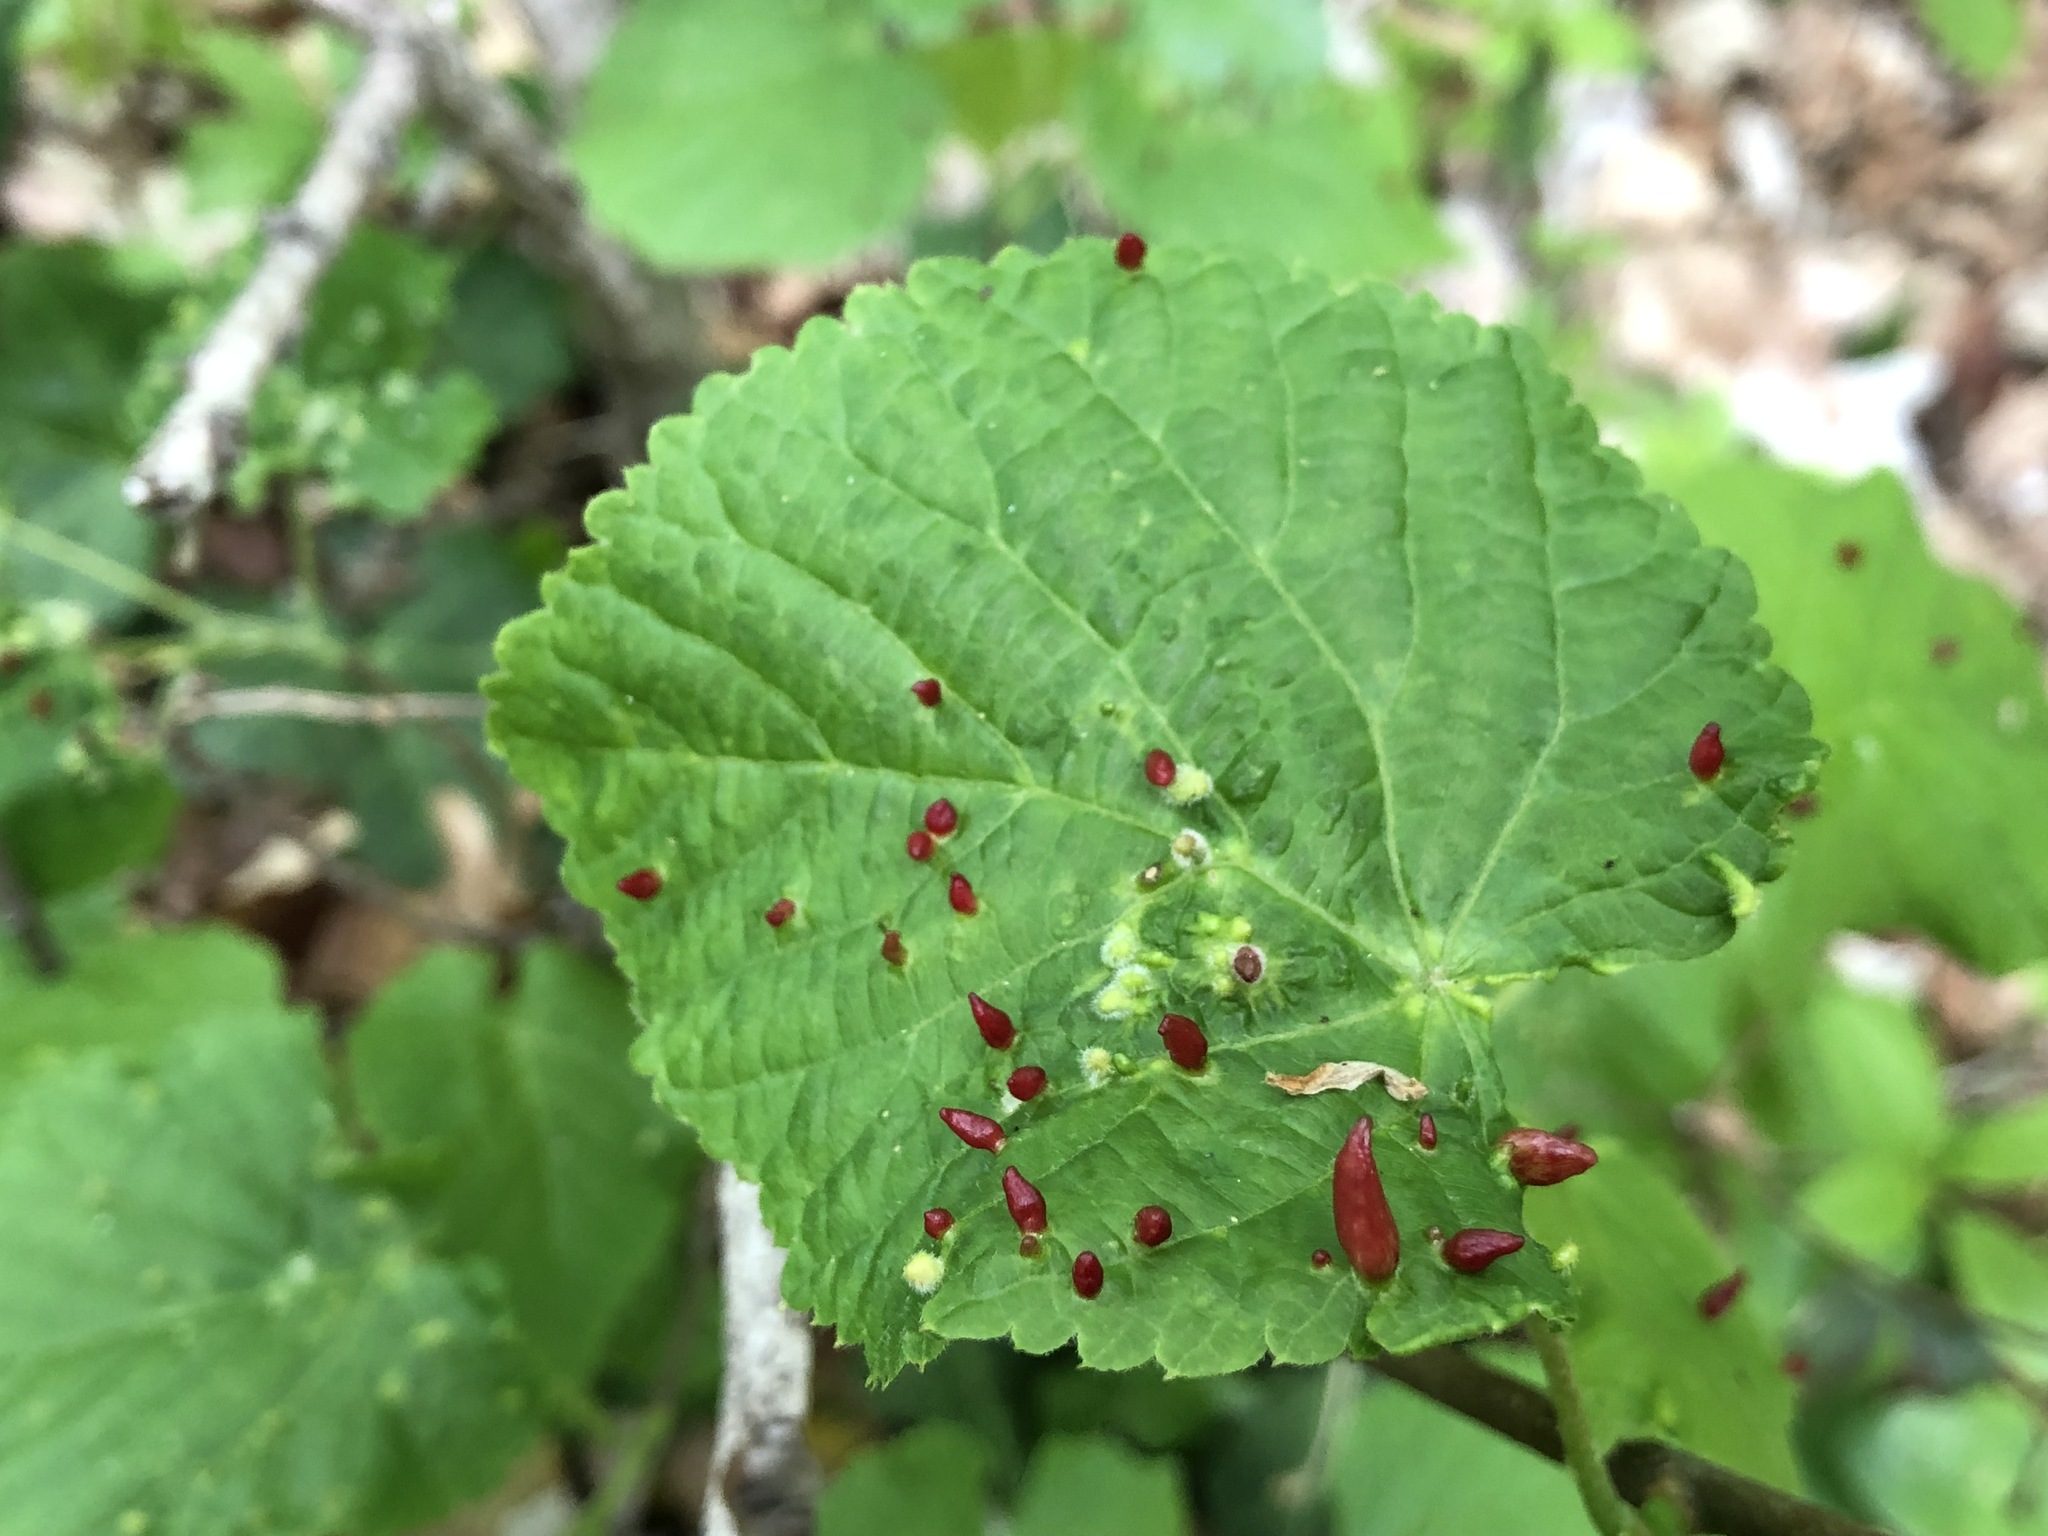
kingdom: Animalia
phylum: Arthropoda
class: Arachnida
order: Trombidiformes
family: Eriophyidae
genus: Eriophyes
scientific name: Eriophyes tiliae
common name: Red nail gall mite
